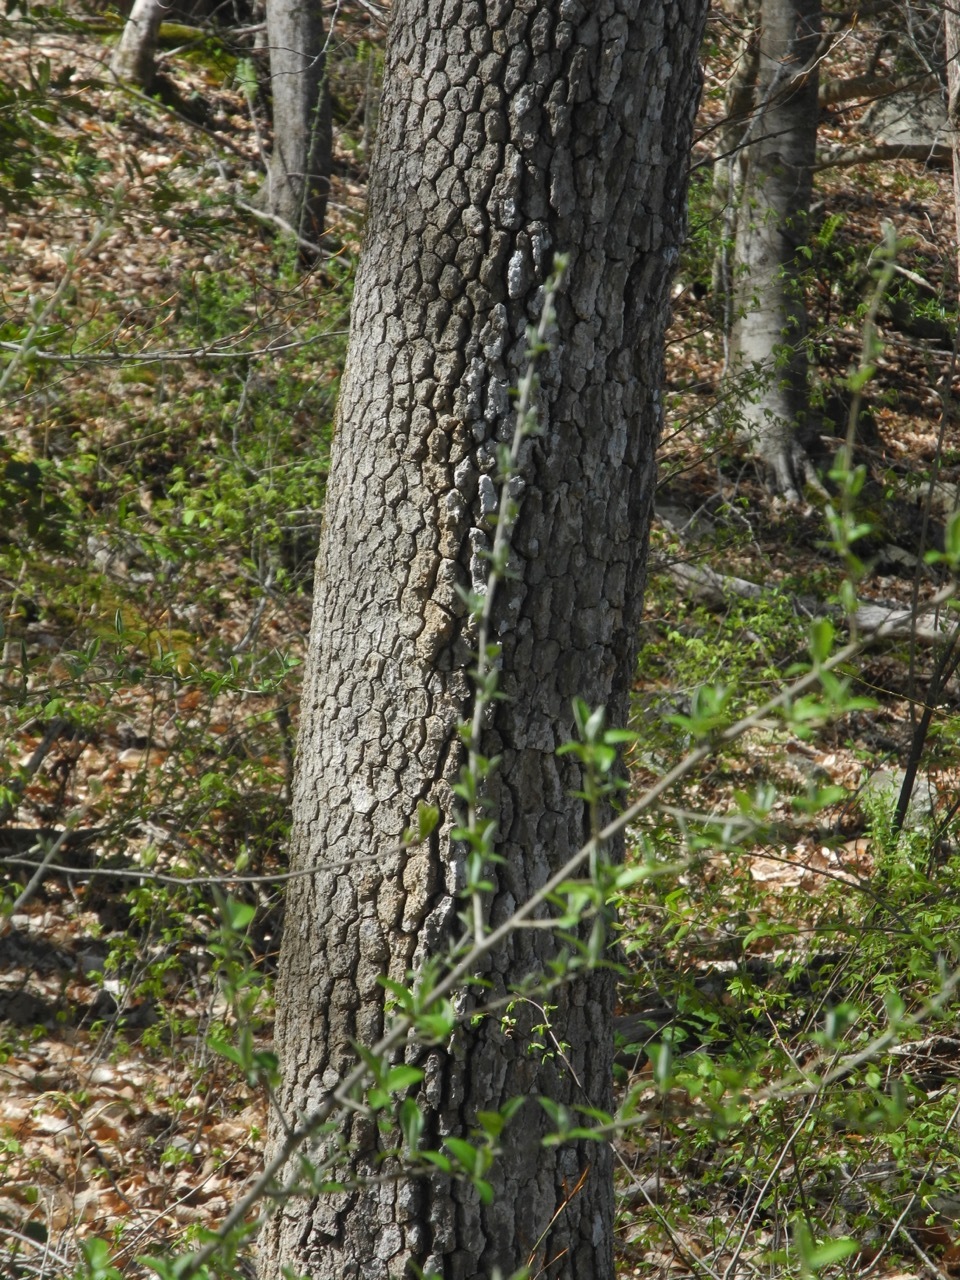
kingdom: Plantae
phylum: Tracheophyta
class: Magnoliopsida
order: Ericales
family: Ebenaceae
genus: Diospyros
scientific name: Diospyros virginiana
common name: Persimmon
